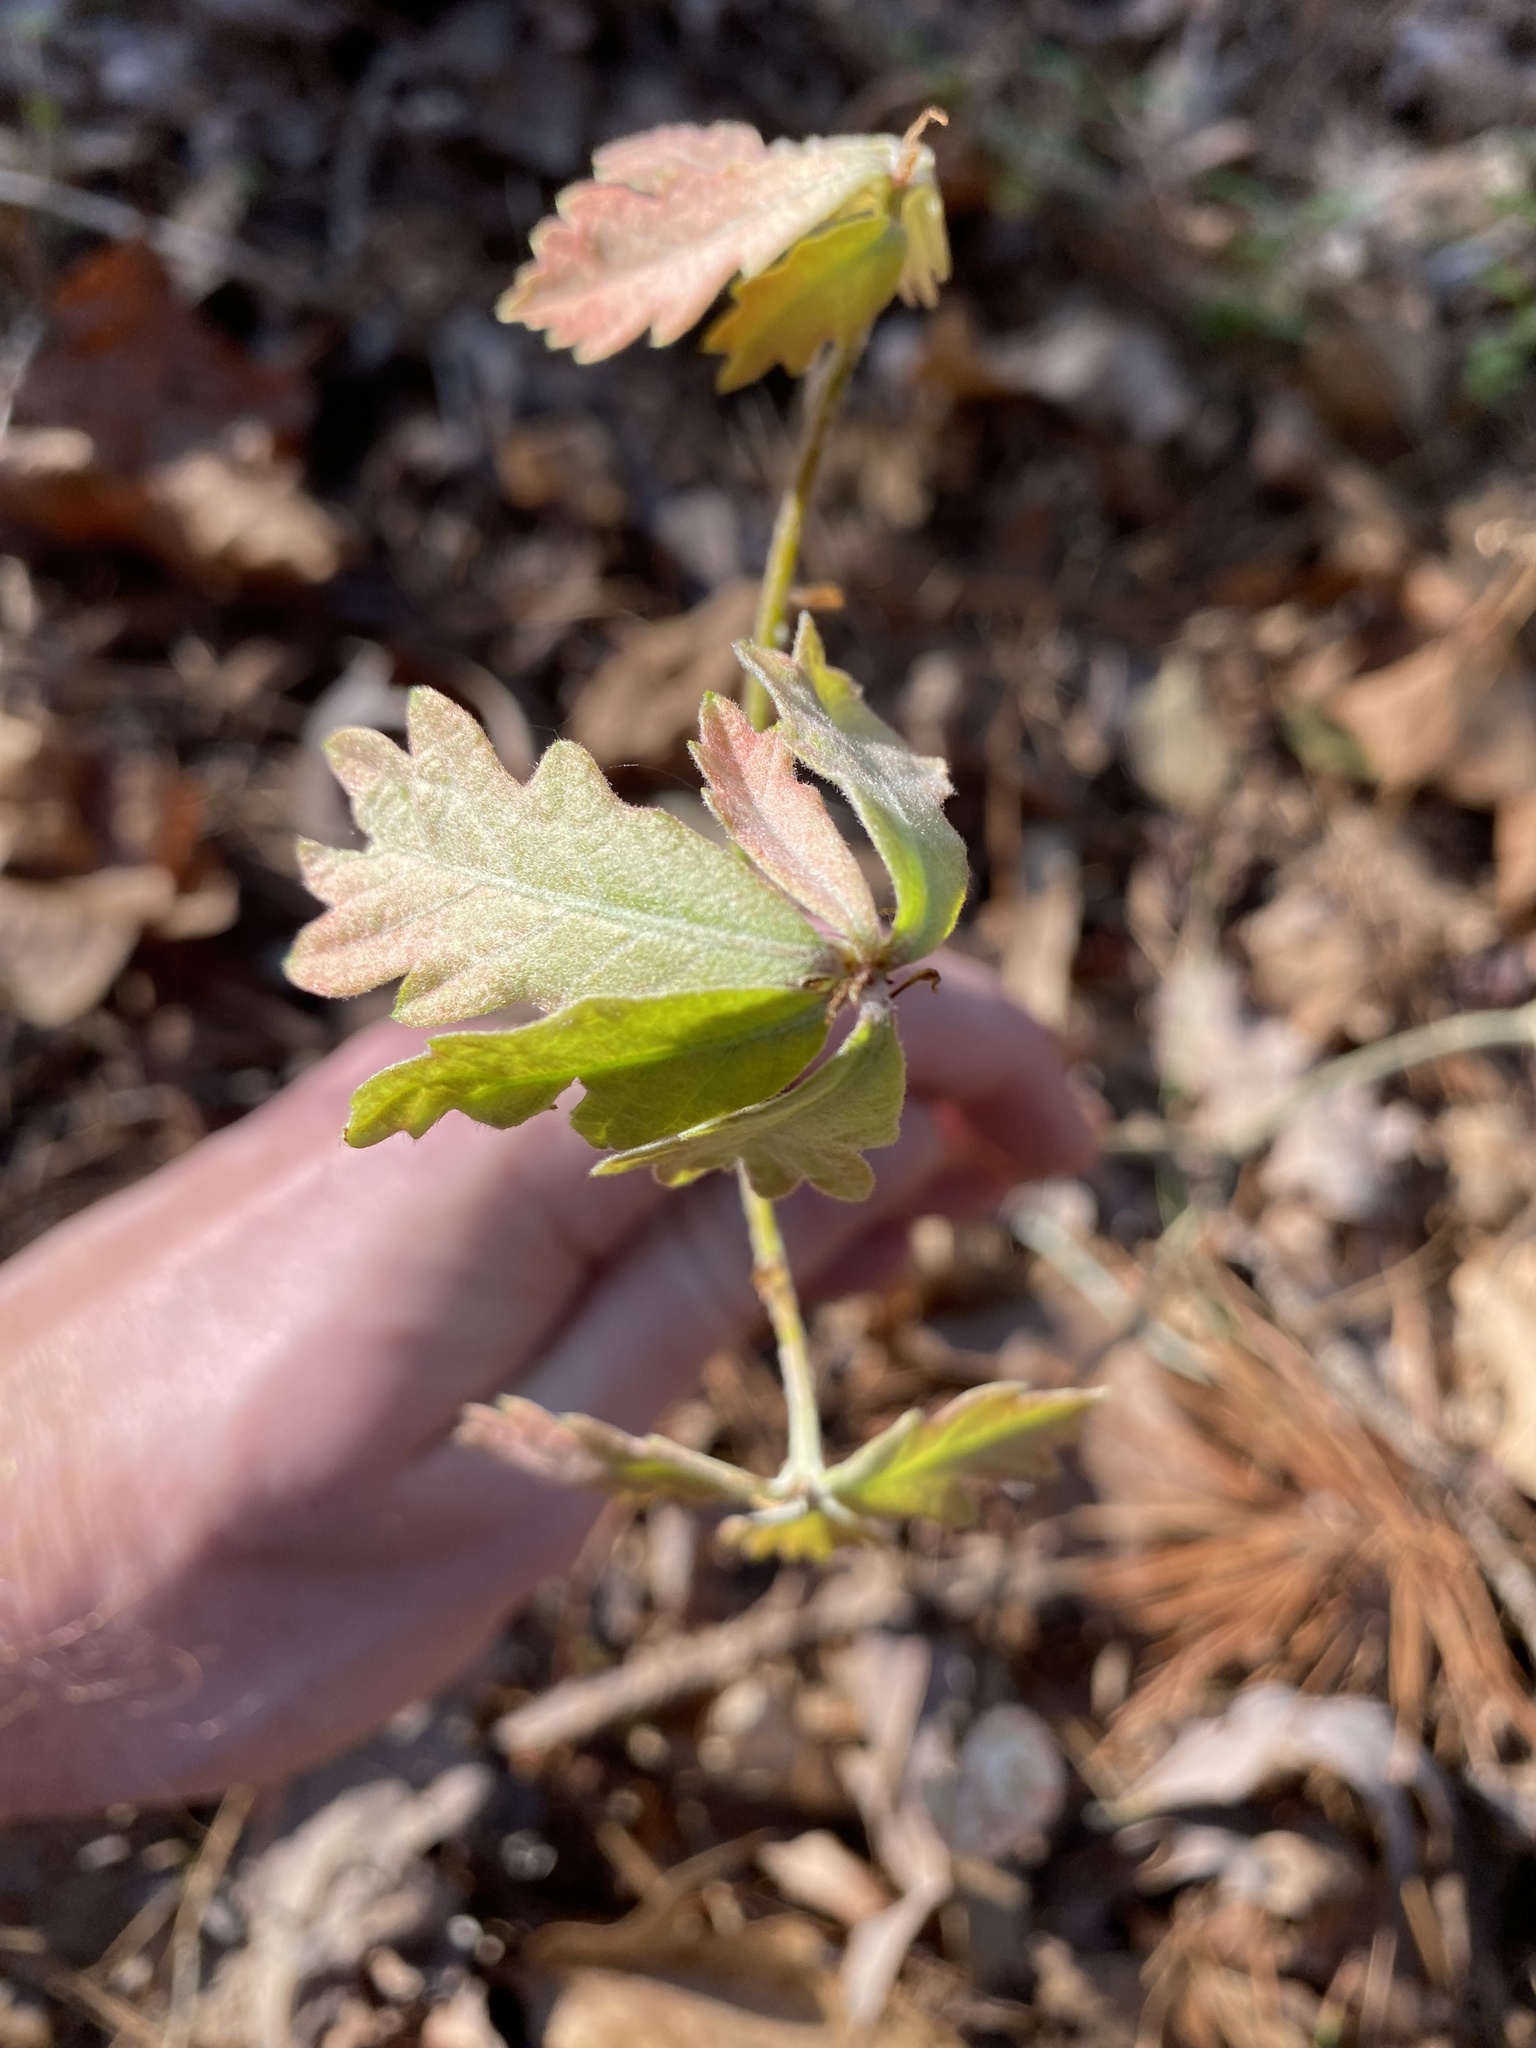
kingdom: Animalia
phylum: Arthropoda
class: Insecta
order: Hymenoptera
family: Cynipidae
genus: Callirhytis
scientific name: Callirhytis
